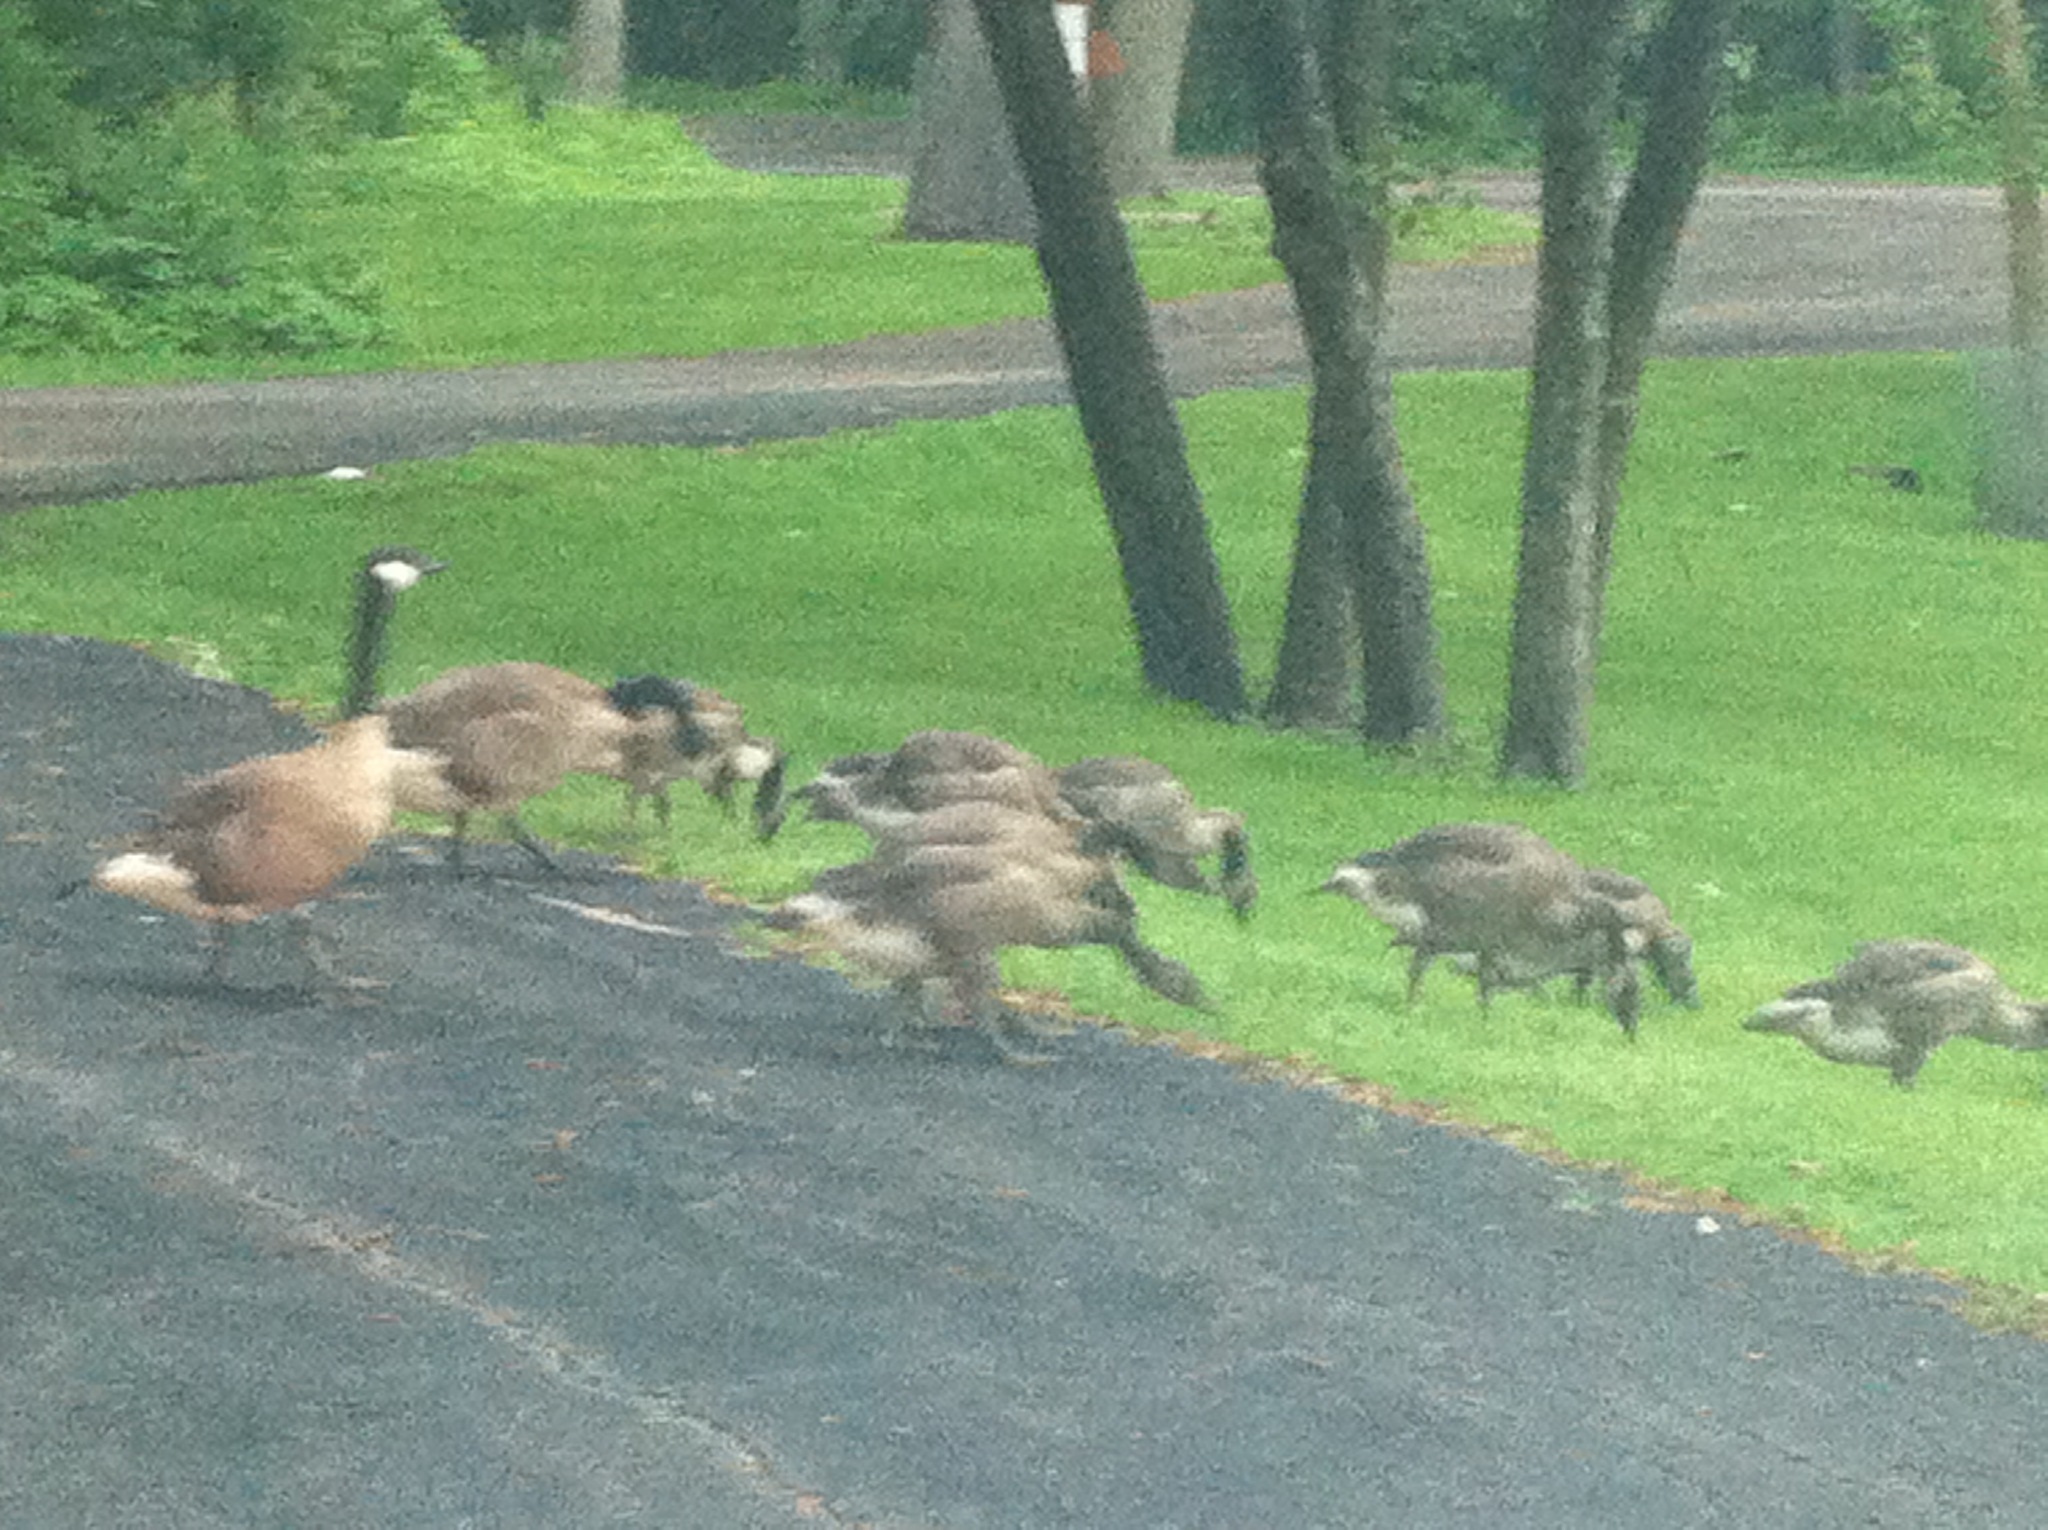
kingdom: Animalia
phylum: Chordata
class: Aves
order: Anseriformes
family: Anatidae
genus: Branta
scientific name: Branta canadensis
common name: Canada goose
